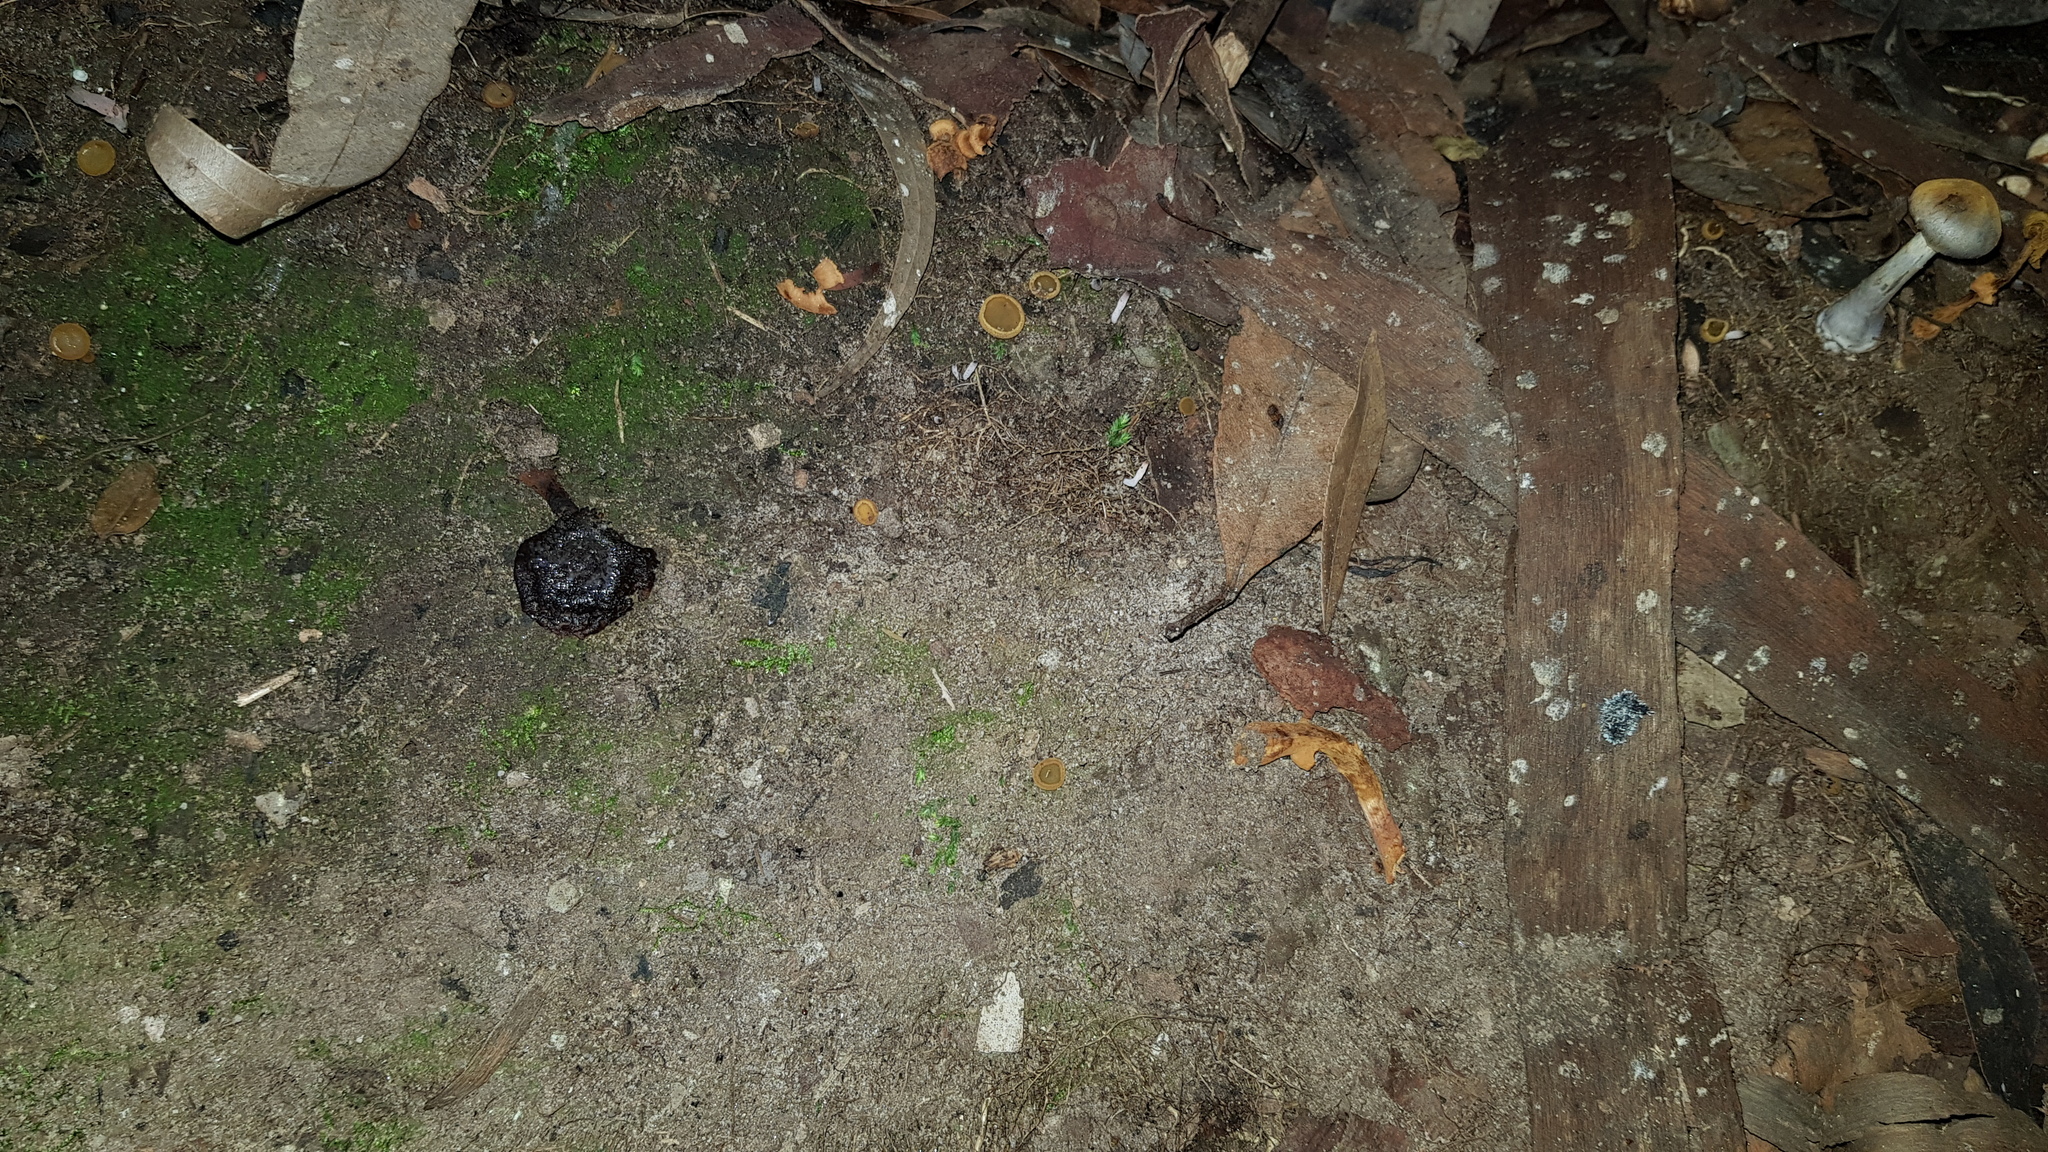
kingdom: Fungi
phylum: Ascomycota
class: Pezizomycetes
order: Pezizales
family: Pyronemataceae
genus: Aleurina
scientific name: Aleurina ferruginea
